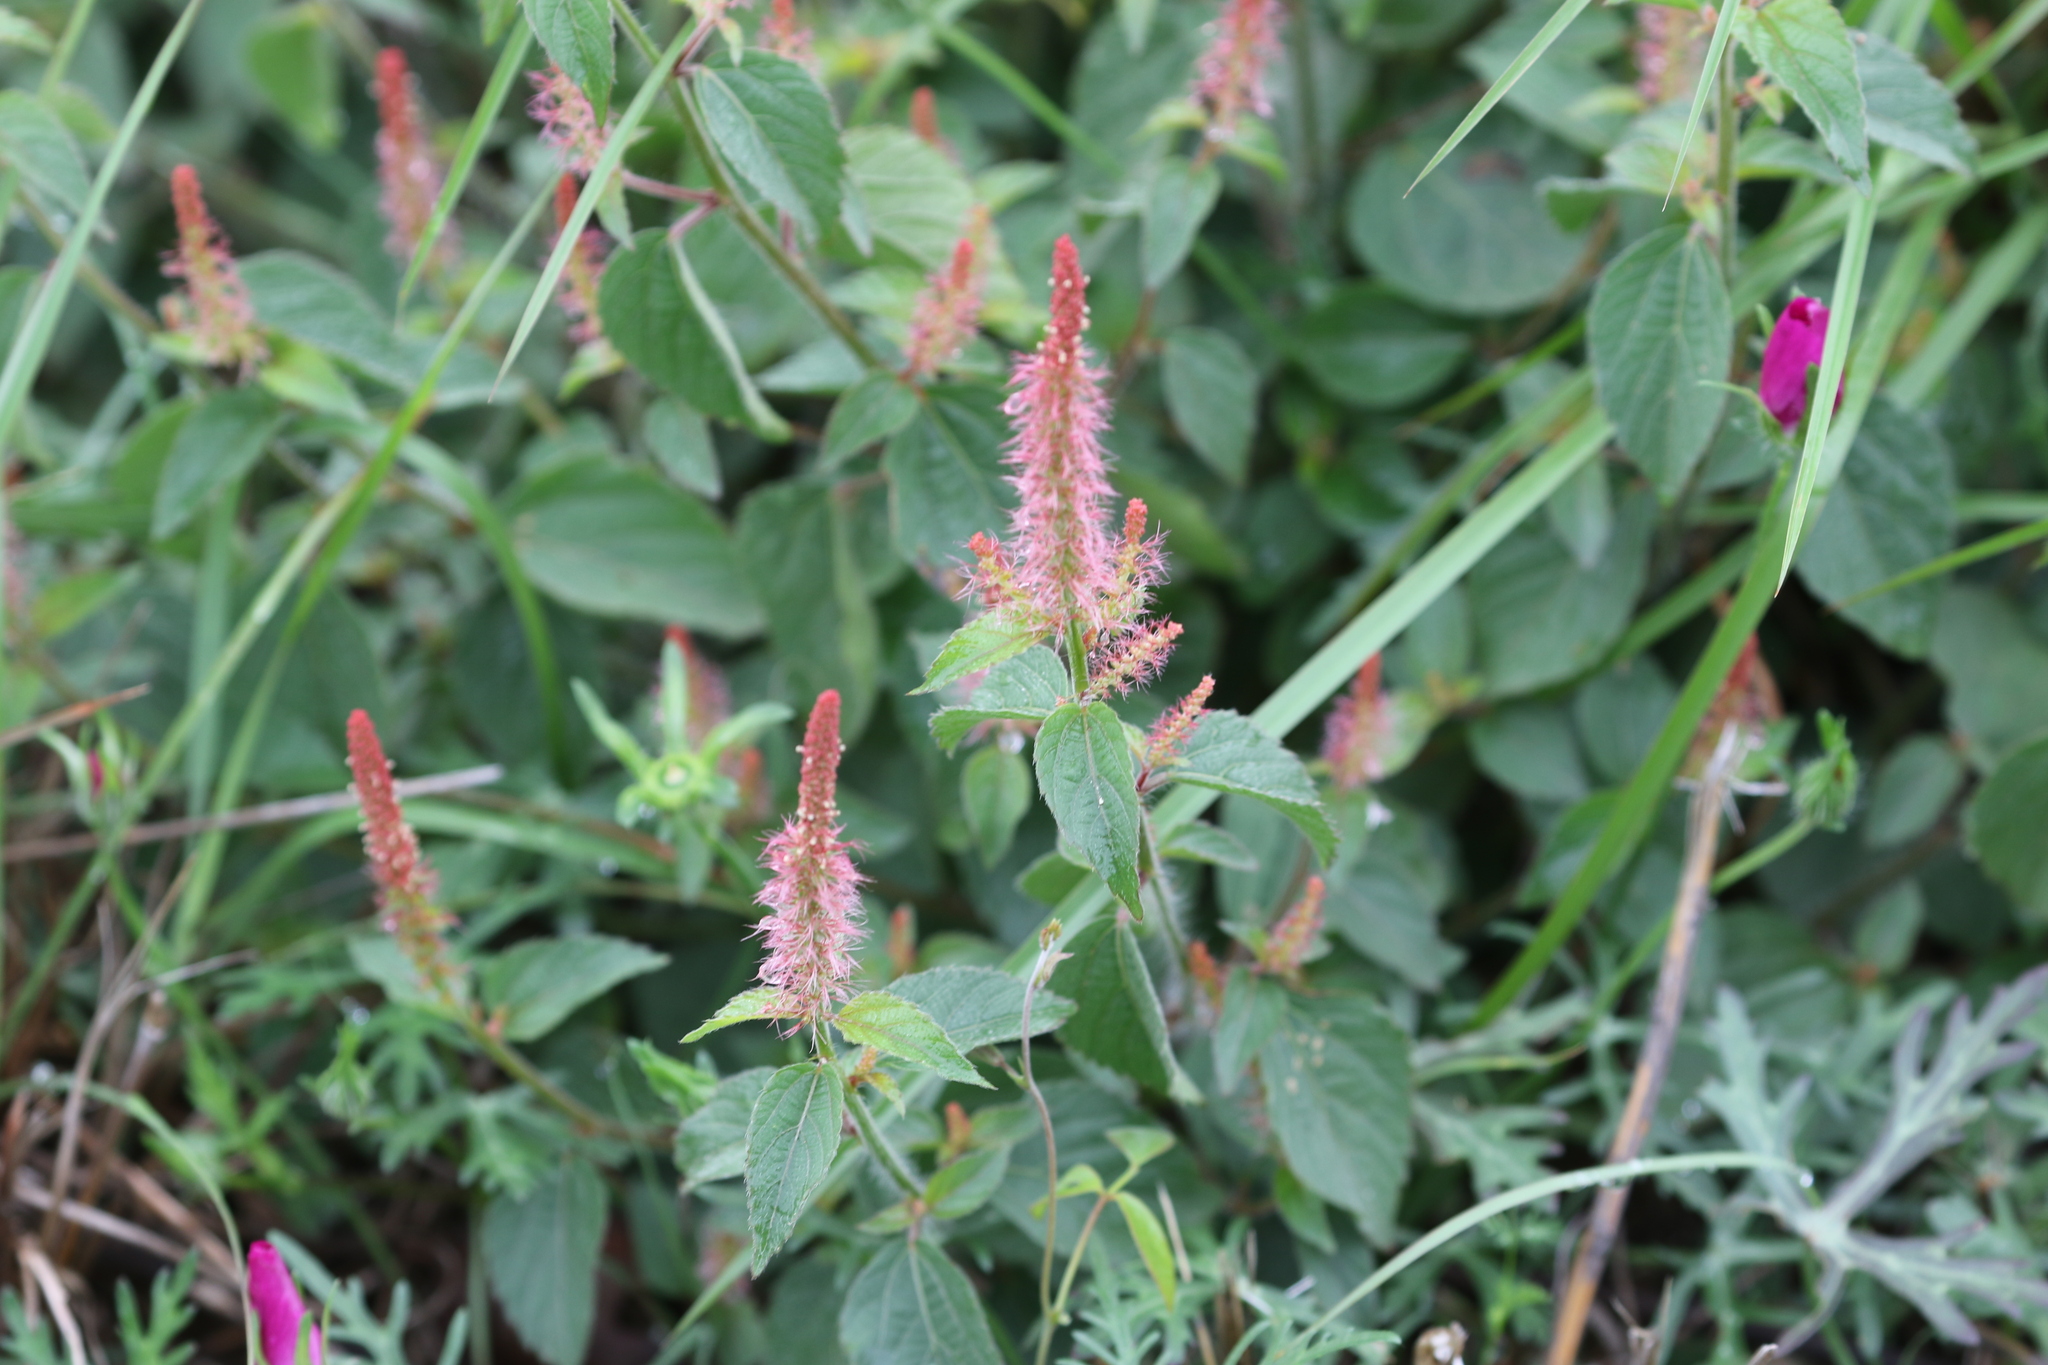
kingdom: Plantae
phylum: Tracheophyta
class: Magnoliopsida
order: Malpighiales
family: Euphorbiaceae
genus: Acalypha
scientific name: Acalypha phleoides
